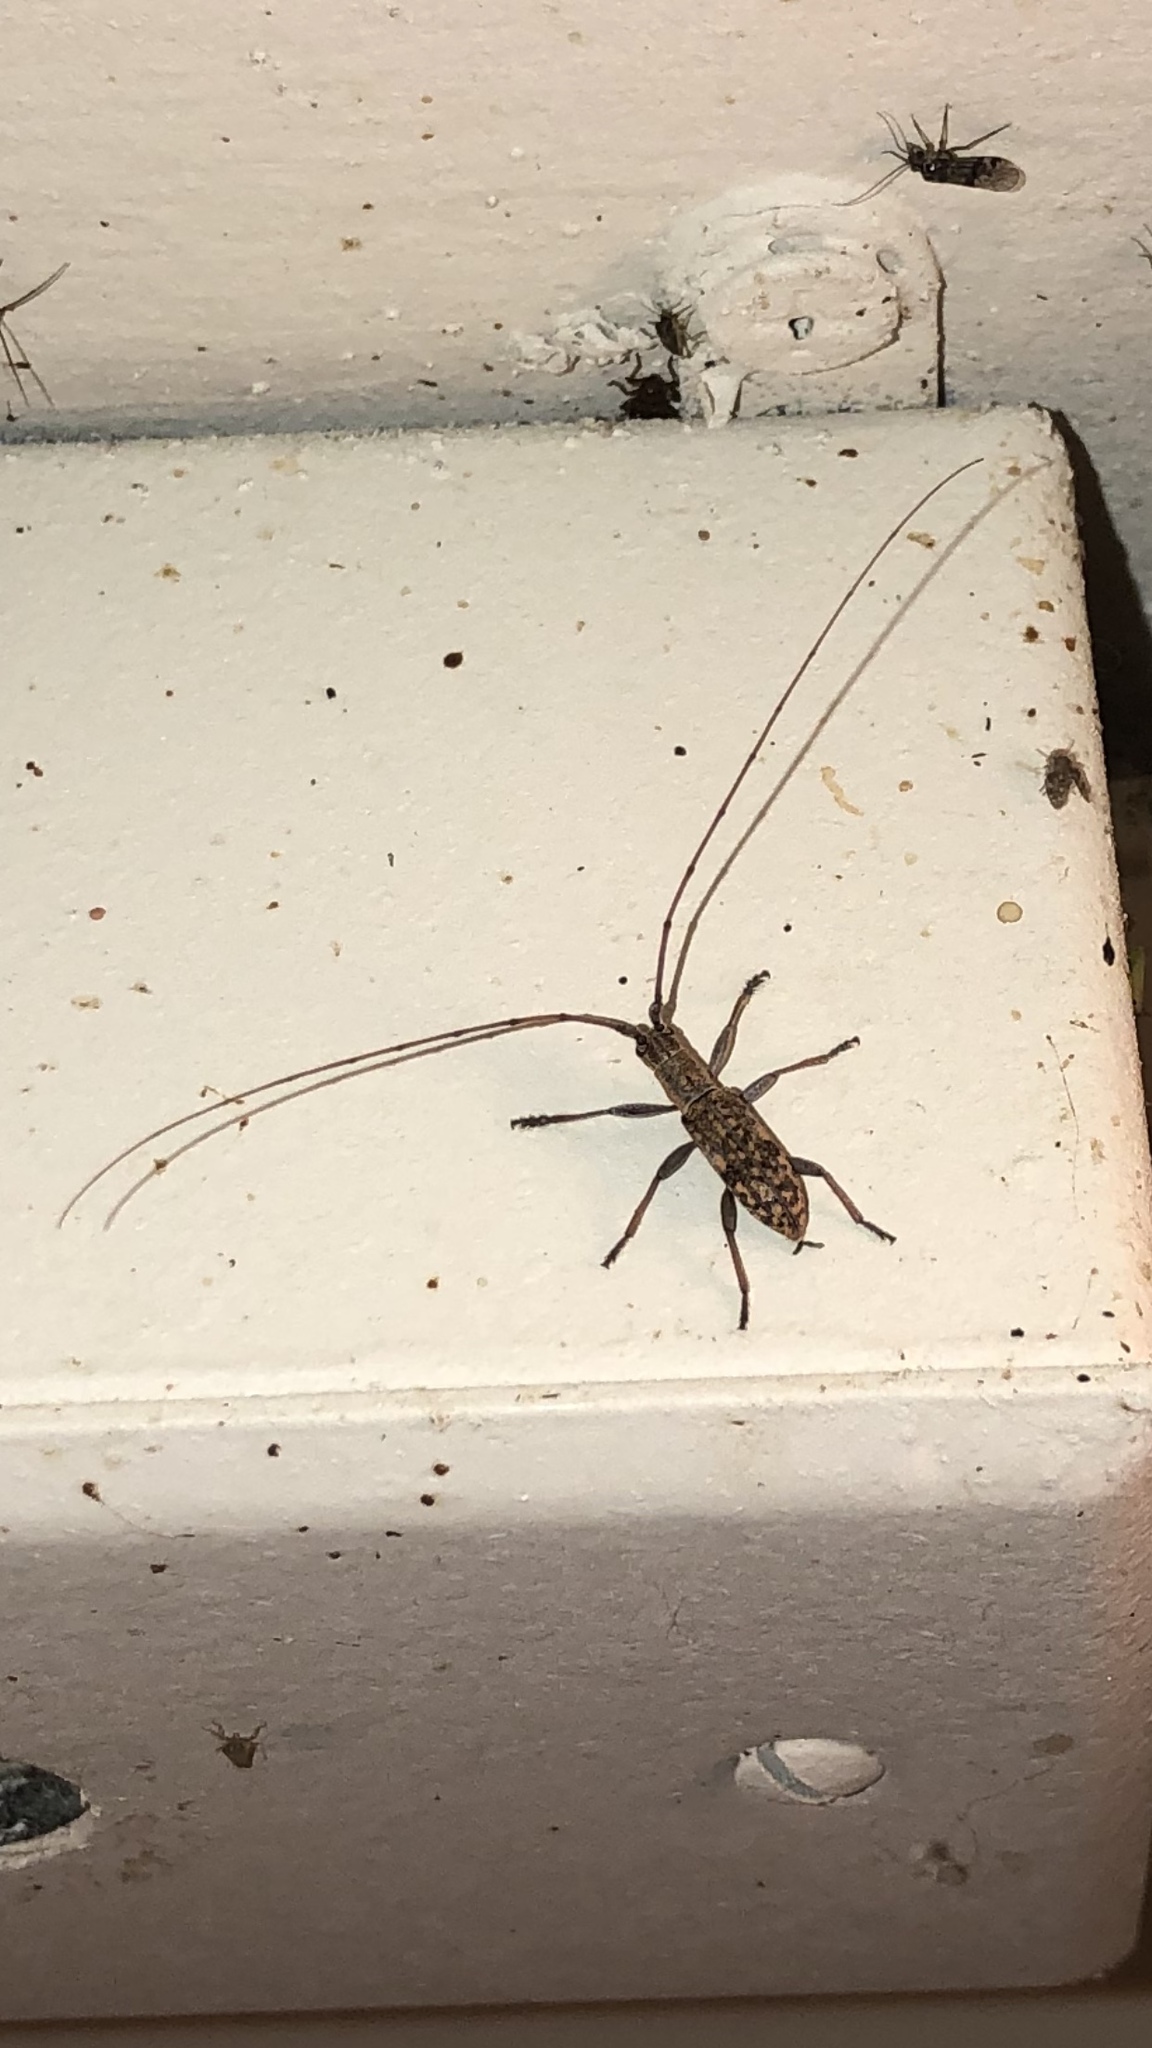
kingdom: Animalia
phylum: Arthropoda
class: Insecta
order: Coleoptera
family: Cerambycidae
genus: Dorcaschema
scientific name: Dorcaschema alternatum
